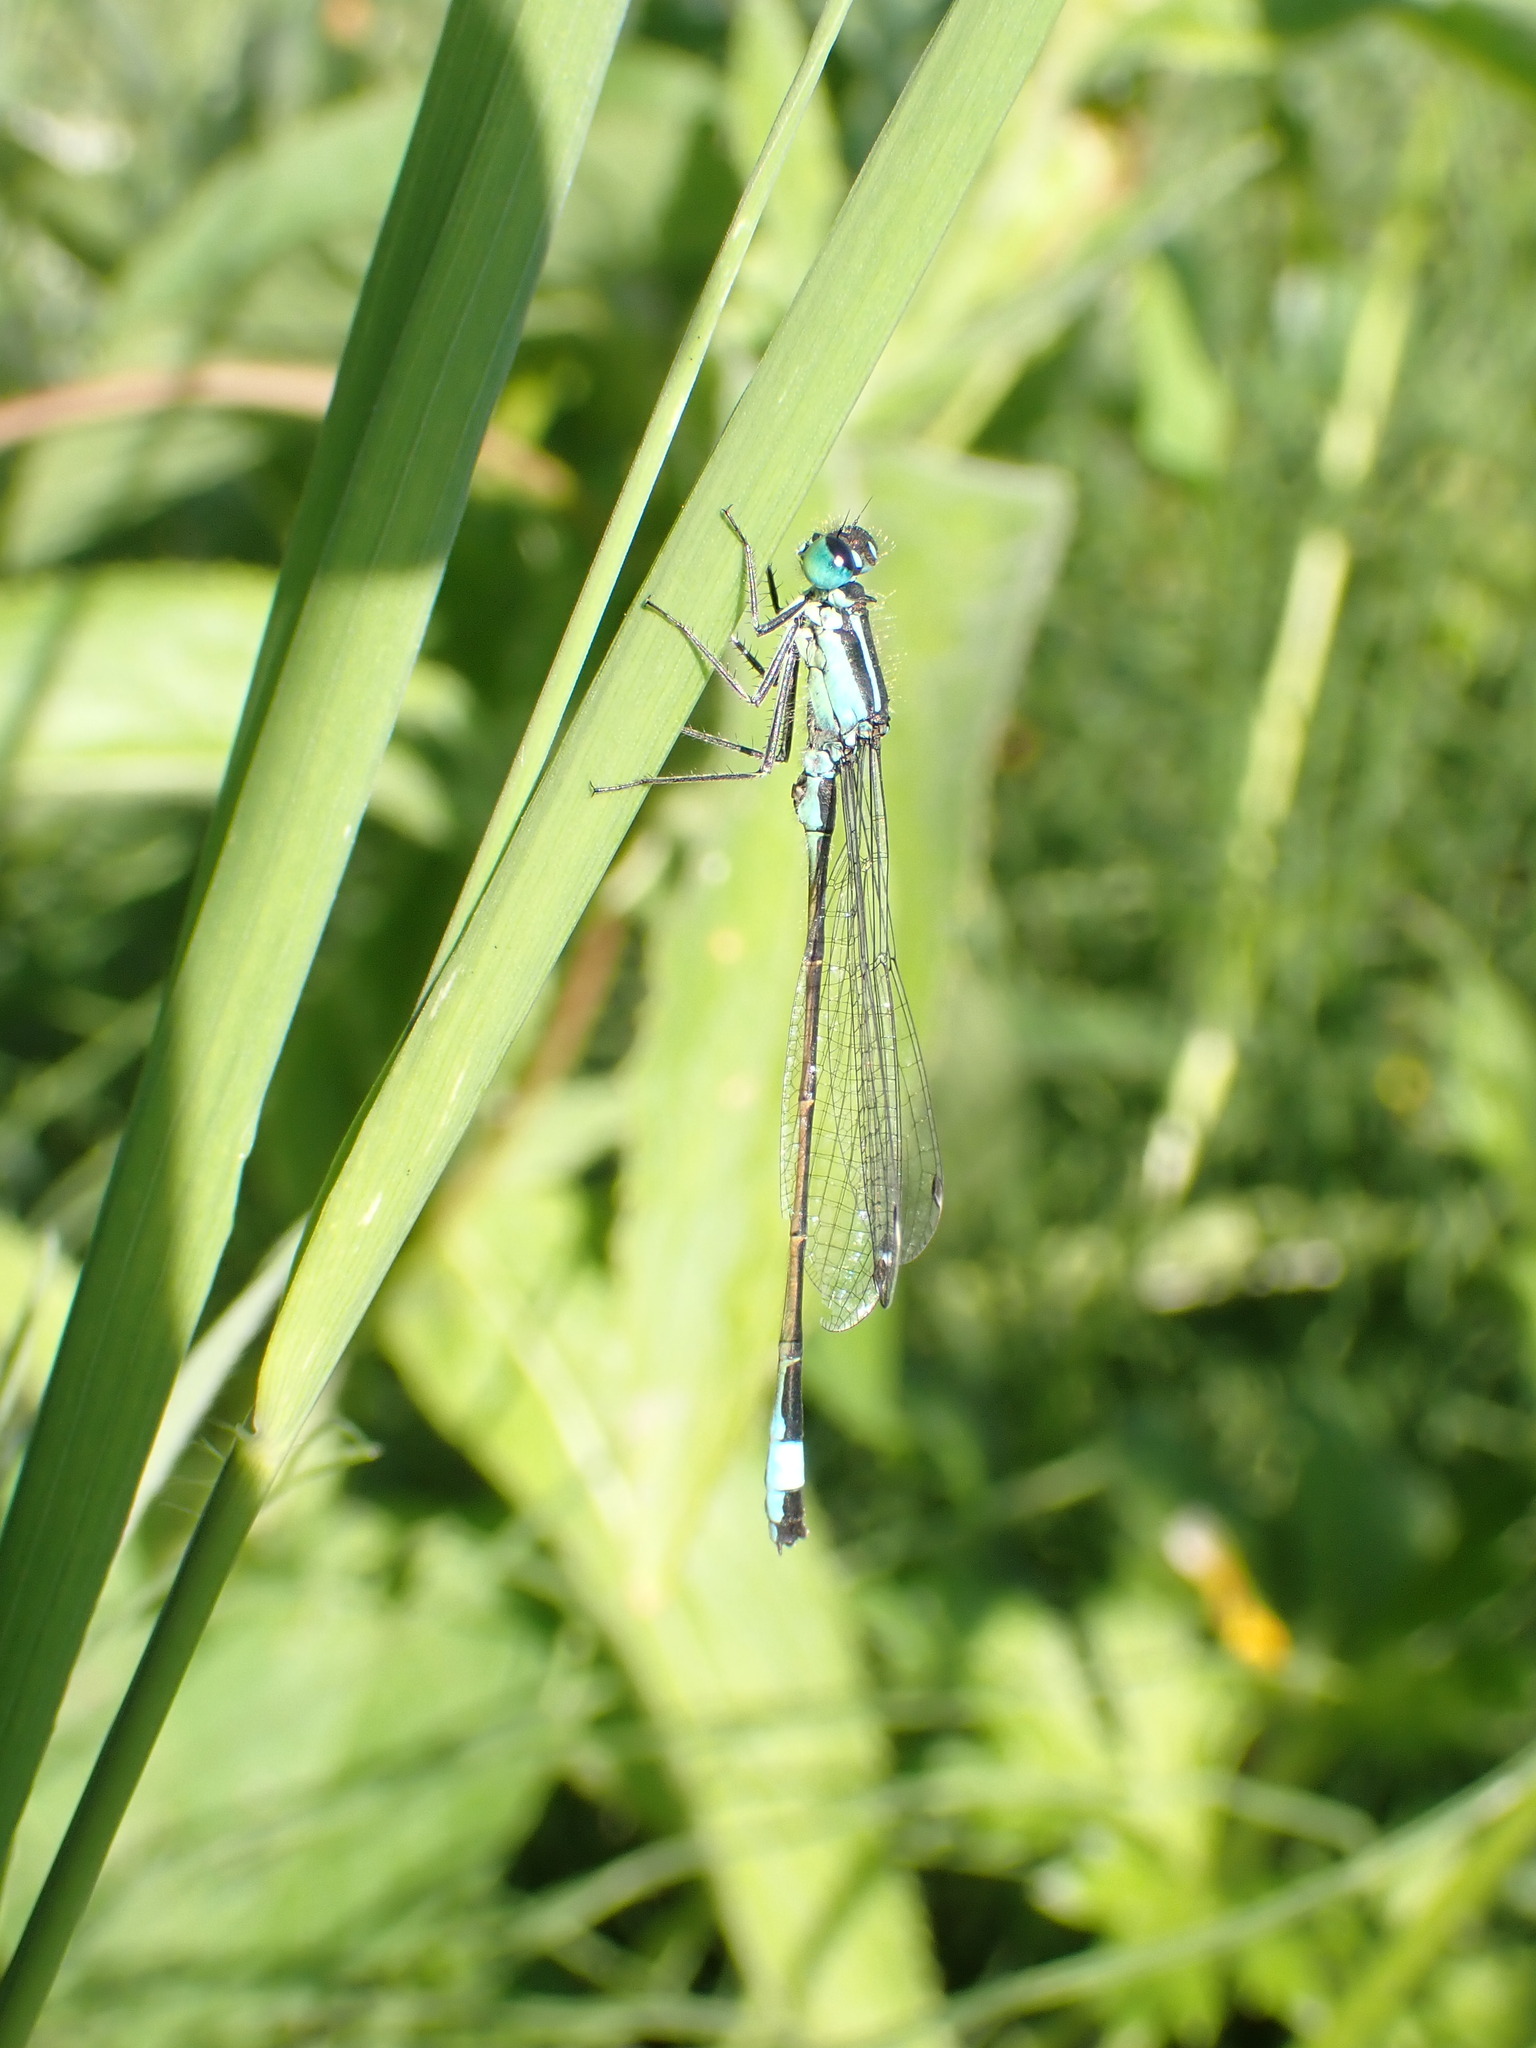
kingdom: Animalia
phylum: Arthropoda
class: Insecta
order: Odonata
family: Coenagrionidae
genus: Ischnura
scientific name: Ischnura elegans
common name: Blue-tailed damselfly
